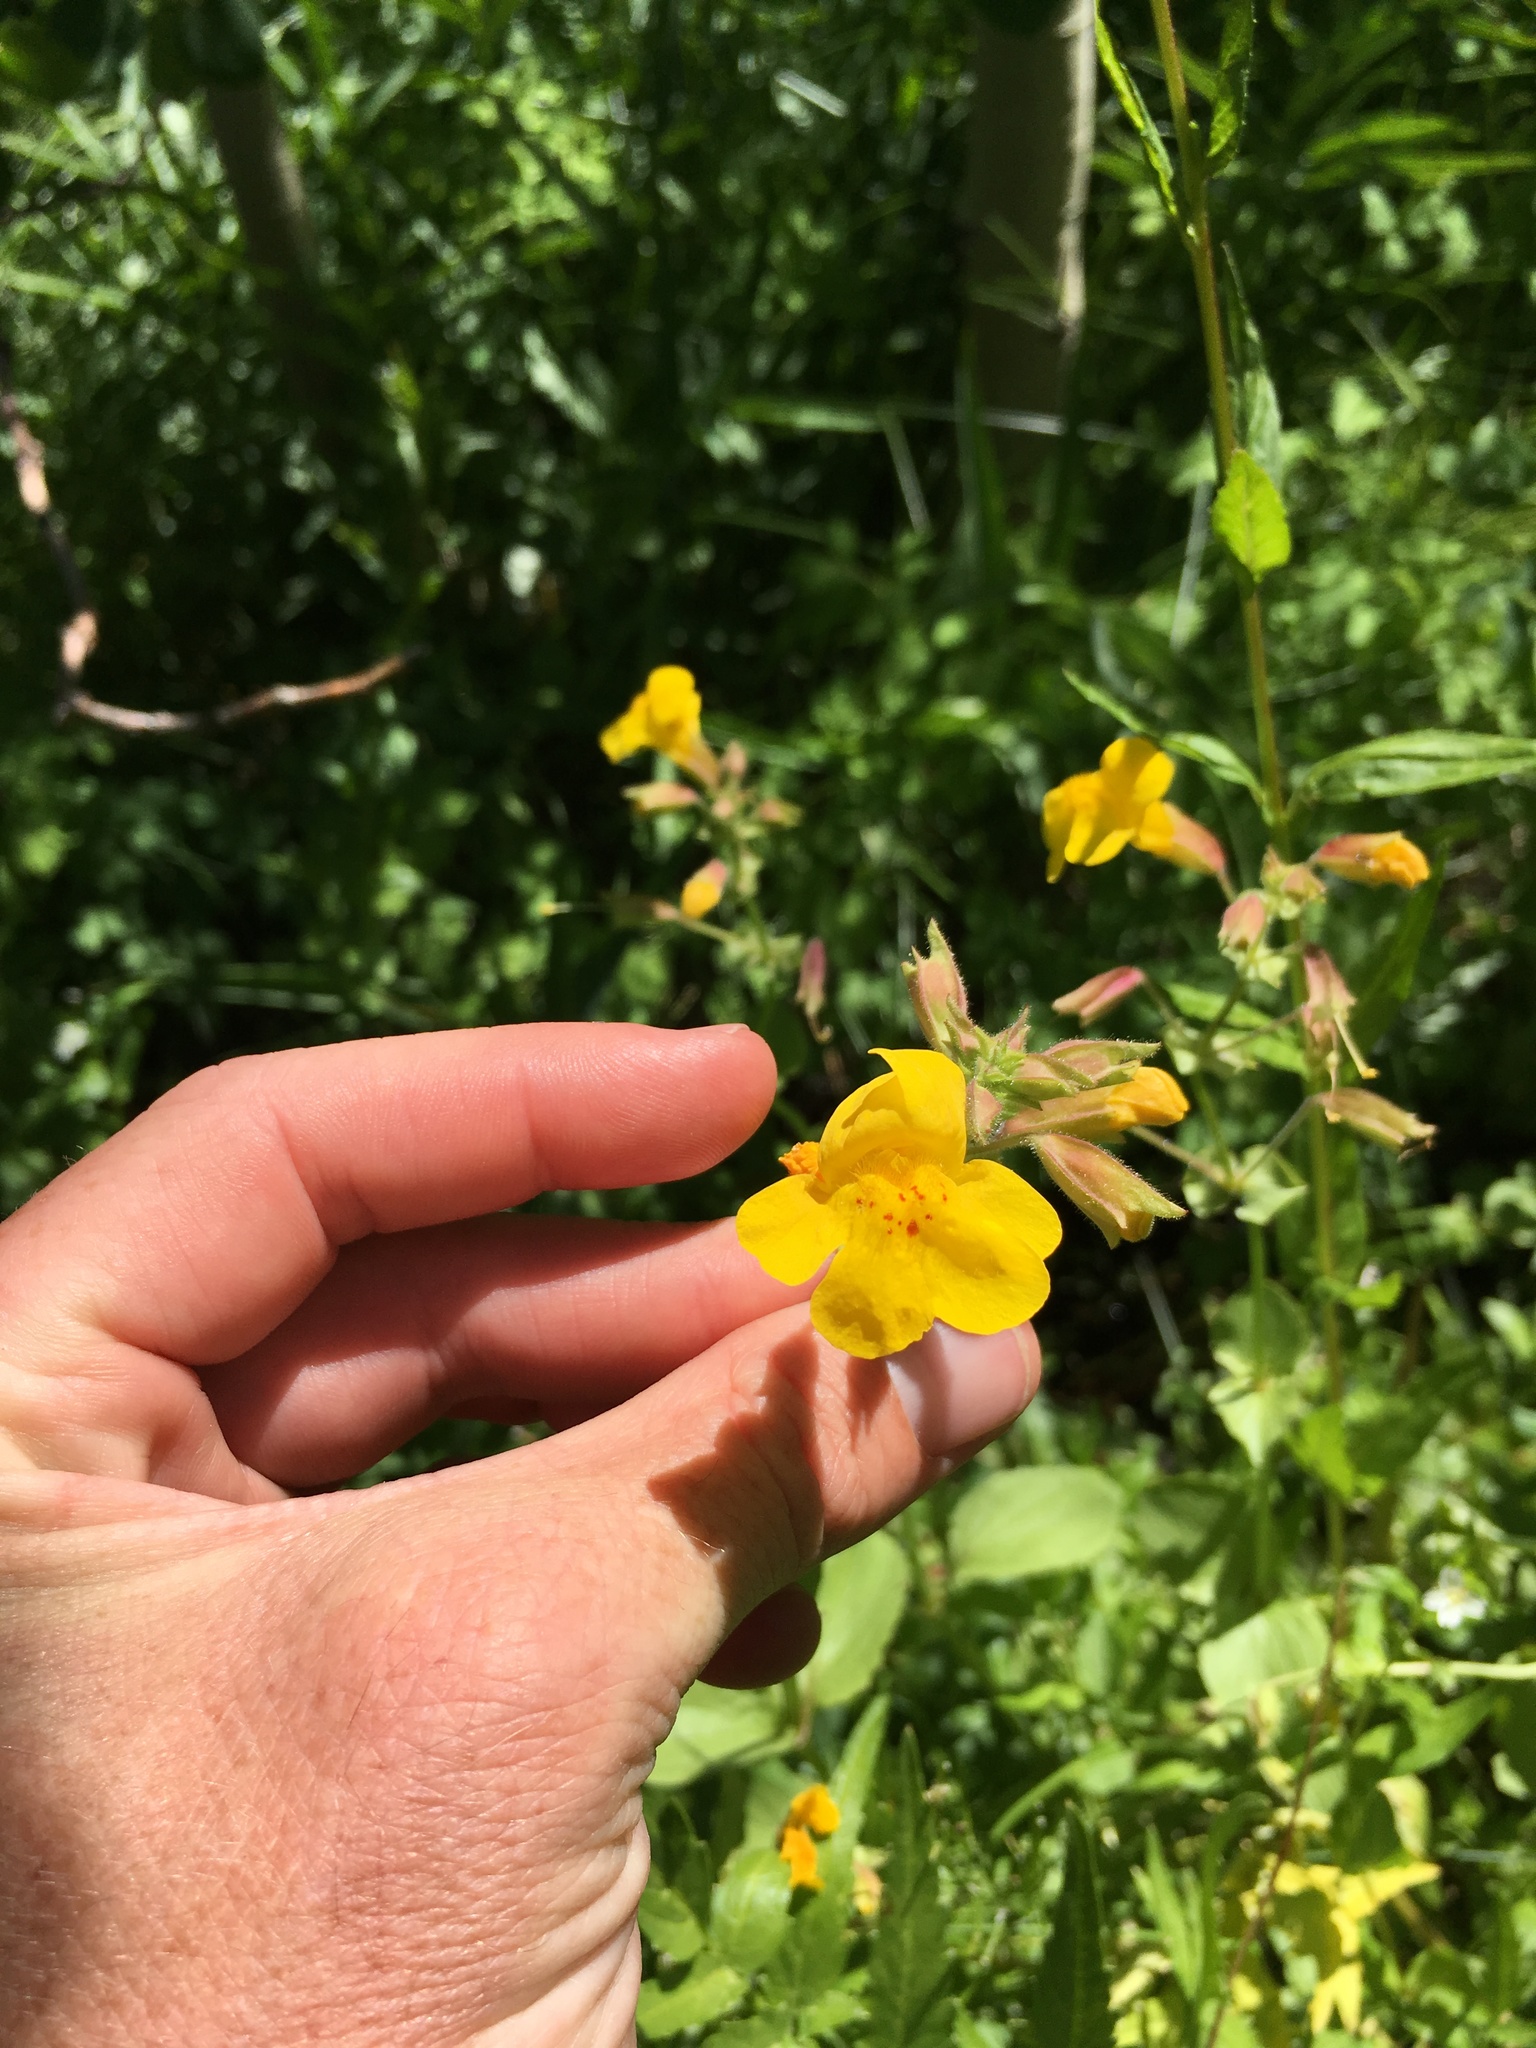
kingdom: Plantae
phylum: Tracheophyta
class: Magnoliopsida
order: Lamiales
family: Phrymaceae
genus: Erythranthe
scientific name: Erythranthe guttata
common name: Monkeyflower
